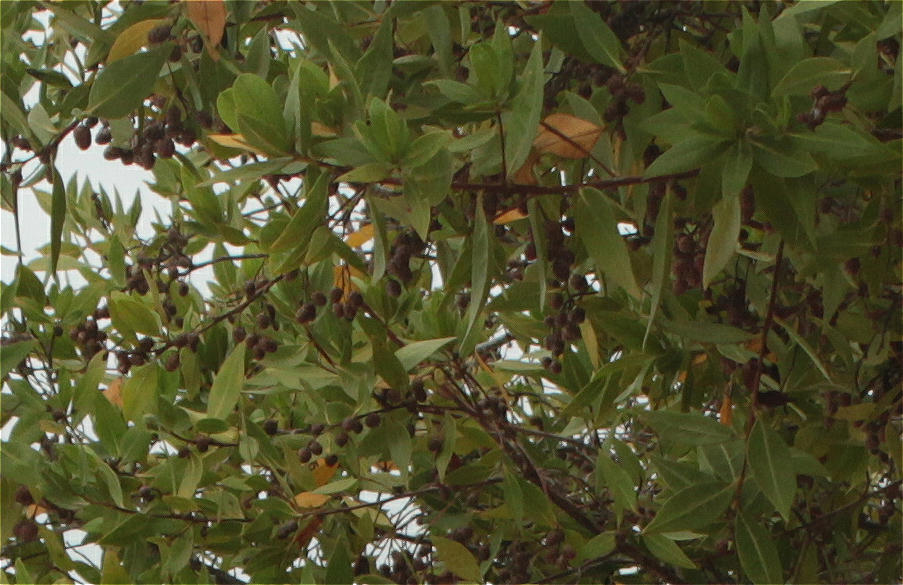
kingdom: Plantae
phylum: Tracheophyta
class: Magnoliopsida
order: Myrtales
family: Combretaceae
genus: Conocarpus
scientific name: Conocarpus erectus
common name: Button mangrove
